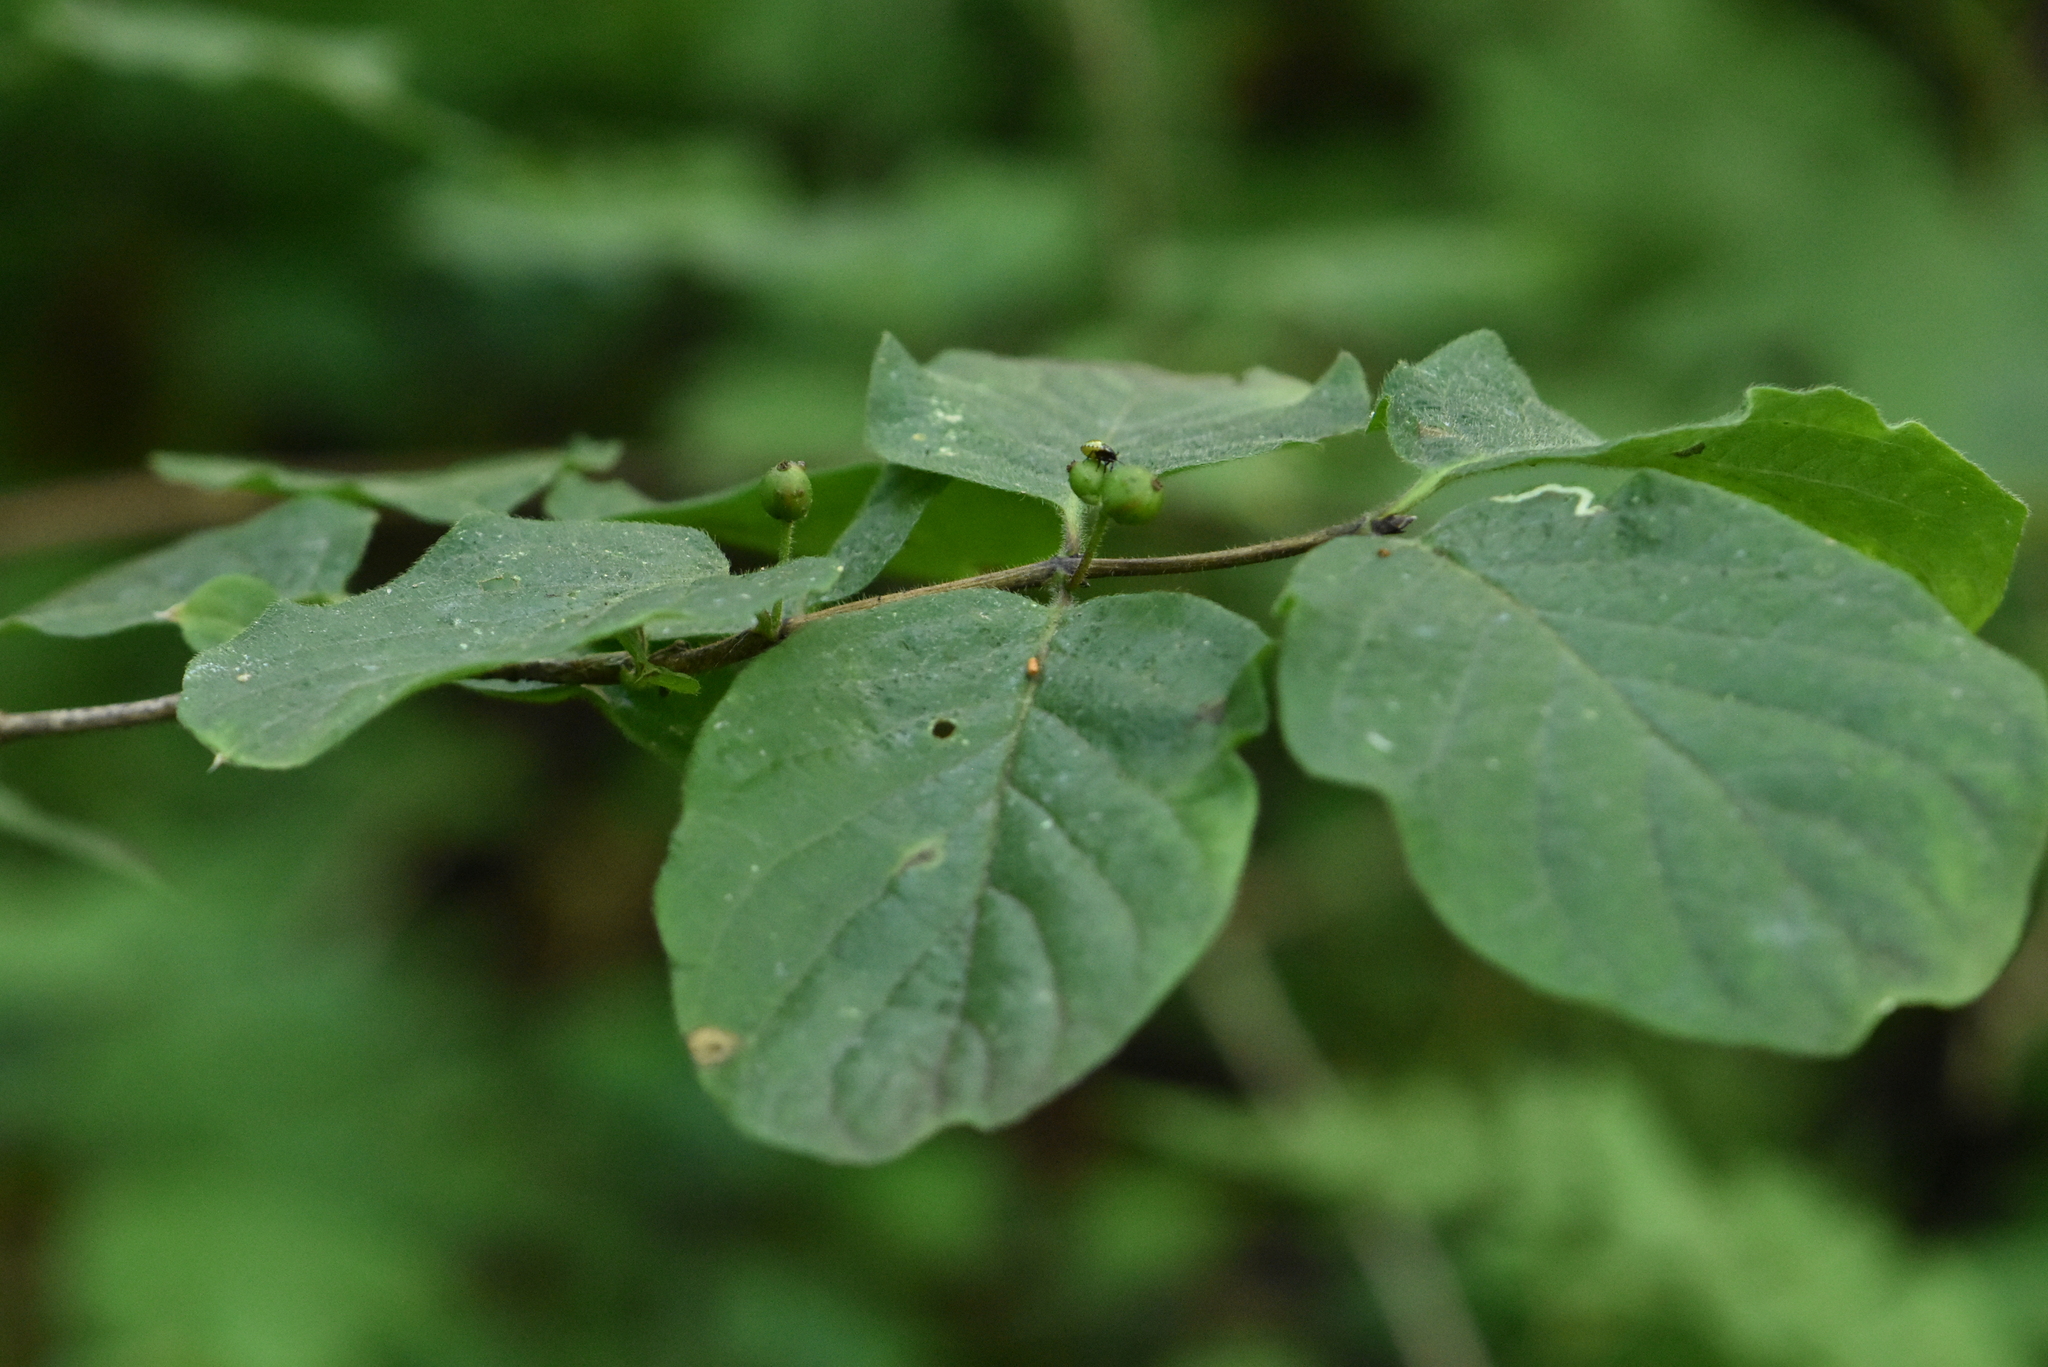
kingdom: Plantae
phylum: Tracheophyta
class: Magnoliopsida
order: Dipsacales
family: Caprifoliaceae
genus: Lonicera
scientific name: Lonicera xylosteum
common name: Fly honeysuckle
